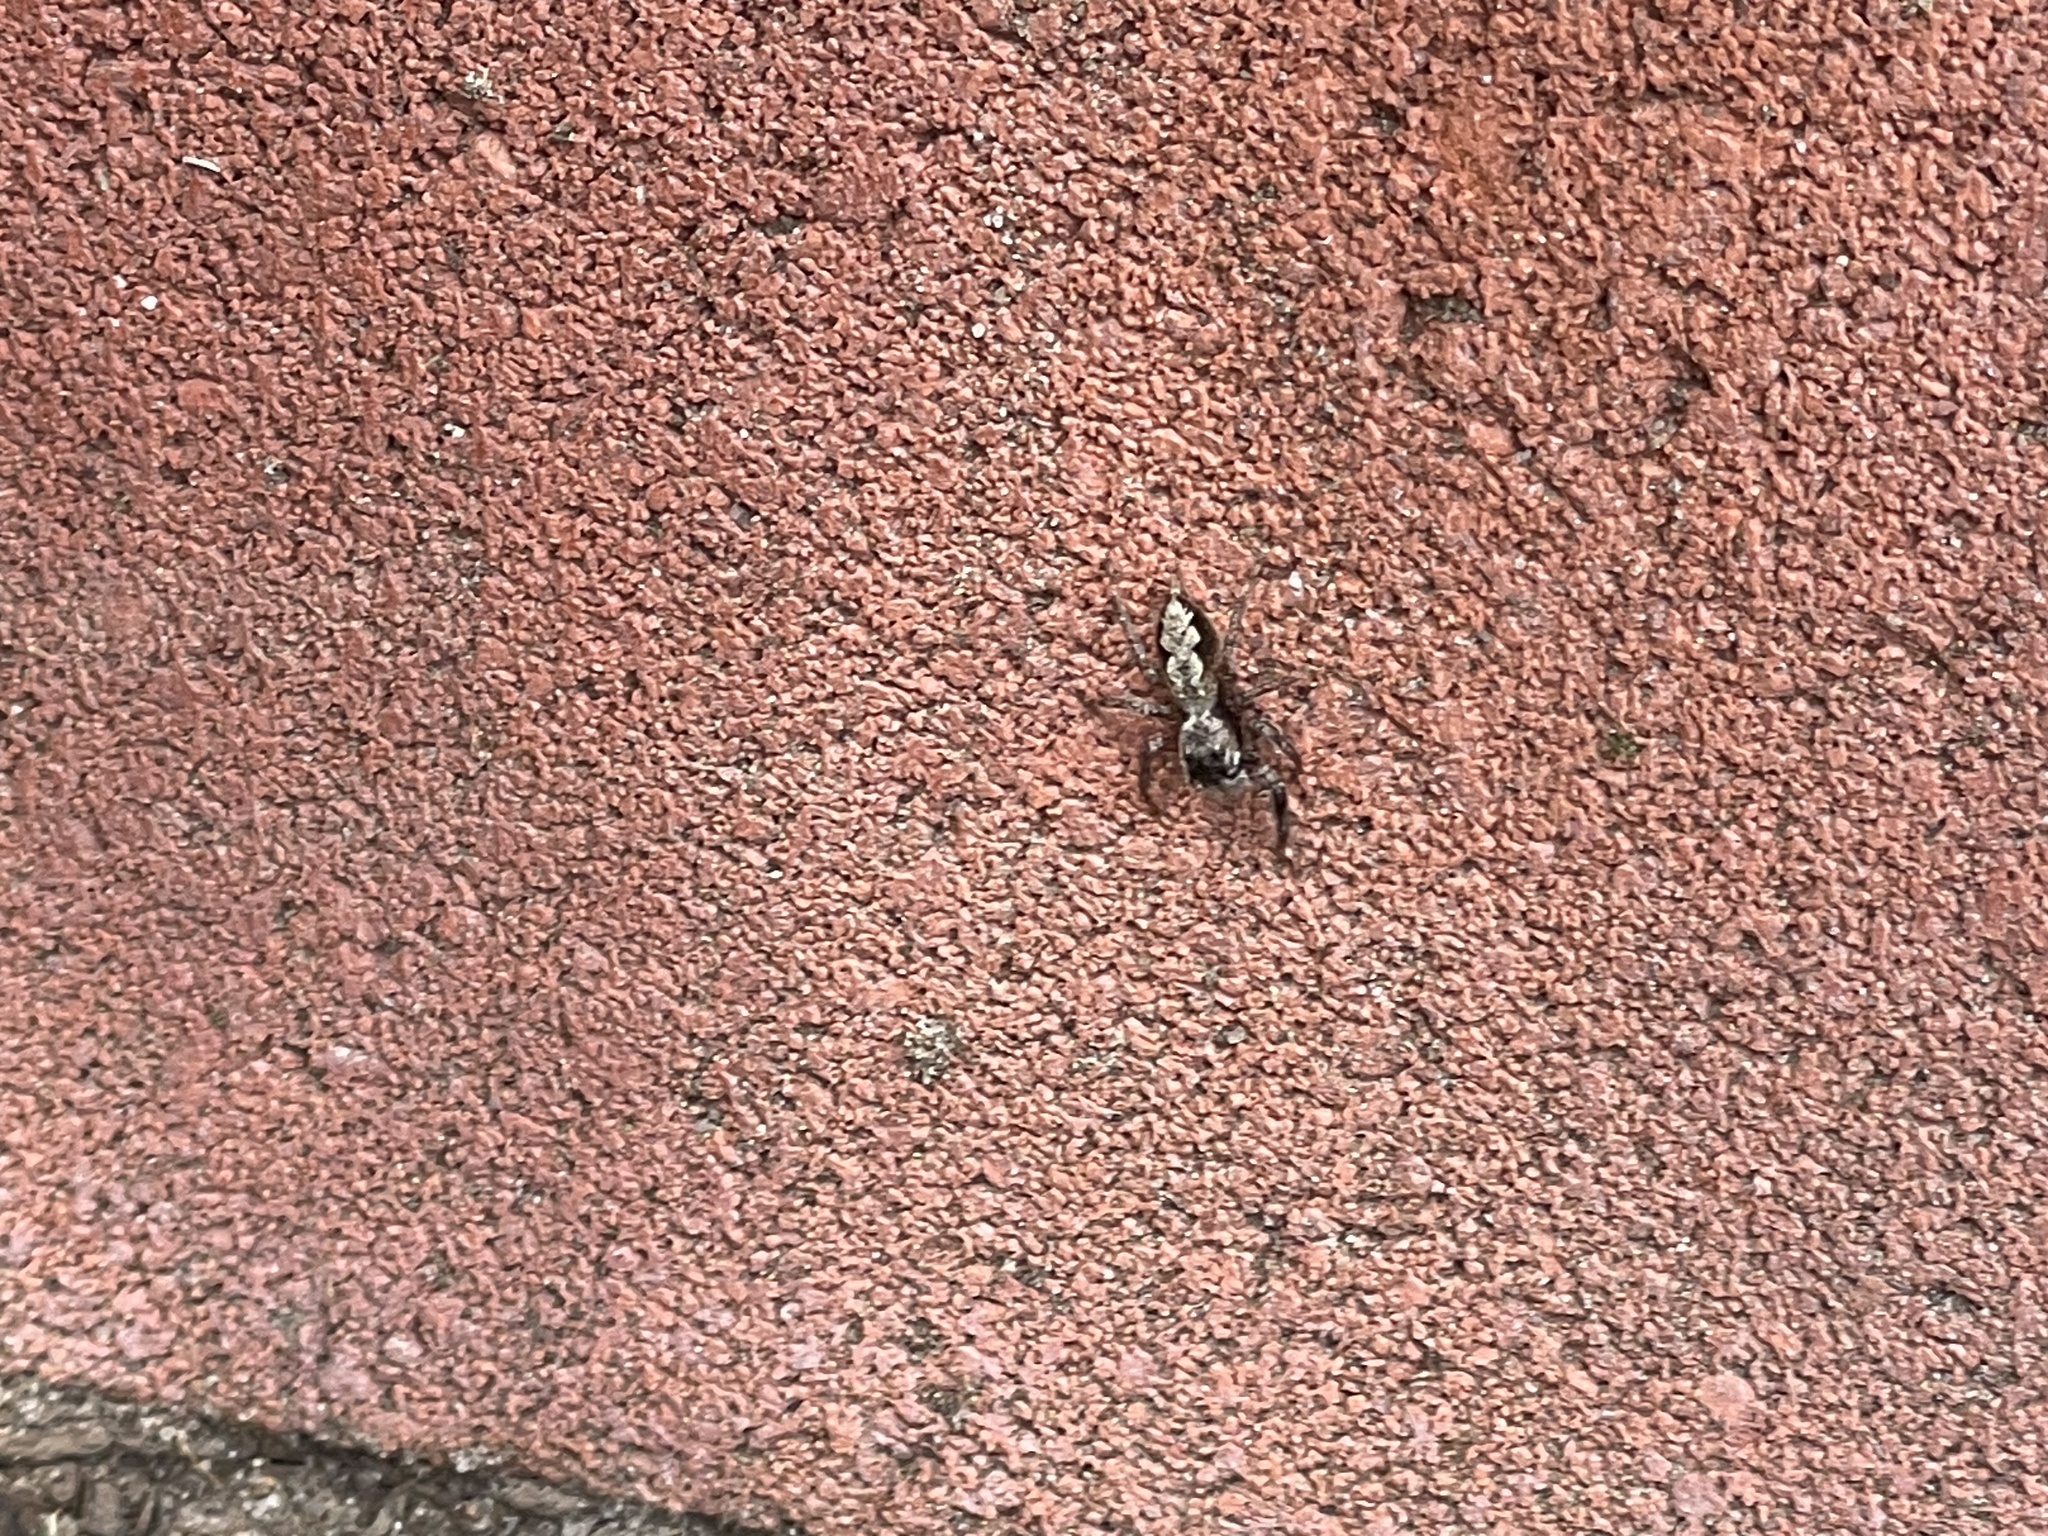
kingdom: Animalia
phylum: Arthropoda
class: Arachnida
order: Araneae
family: Salticidae
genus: Platycryptus
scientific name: Platycryptus undatus
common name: Tan jumping spider
